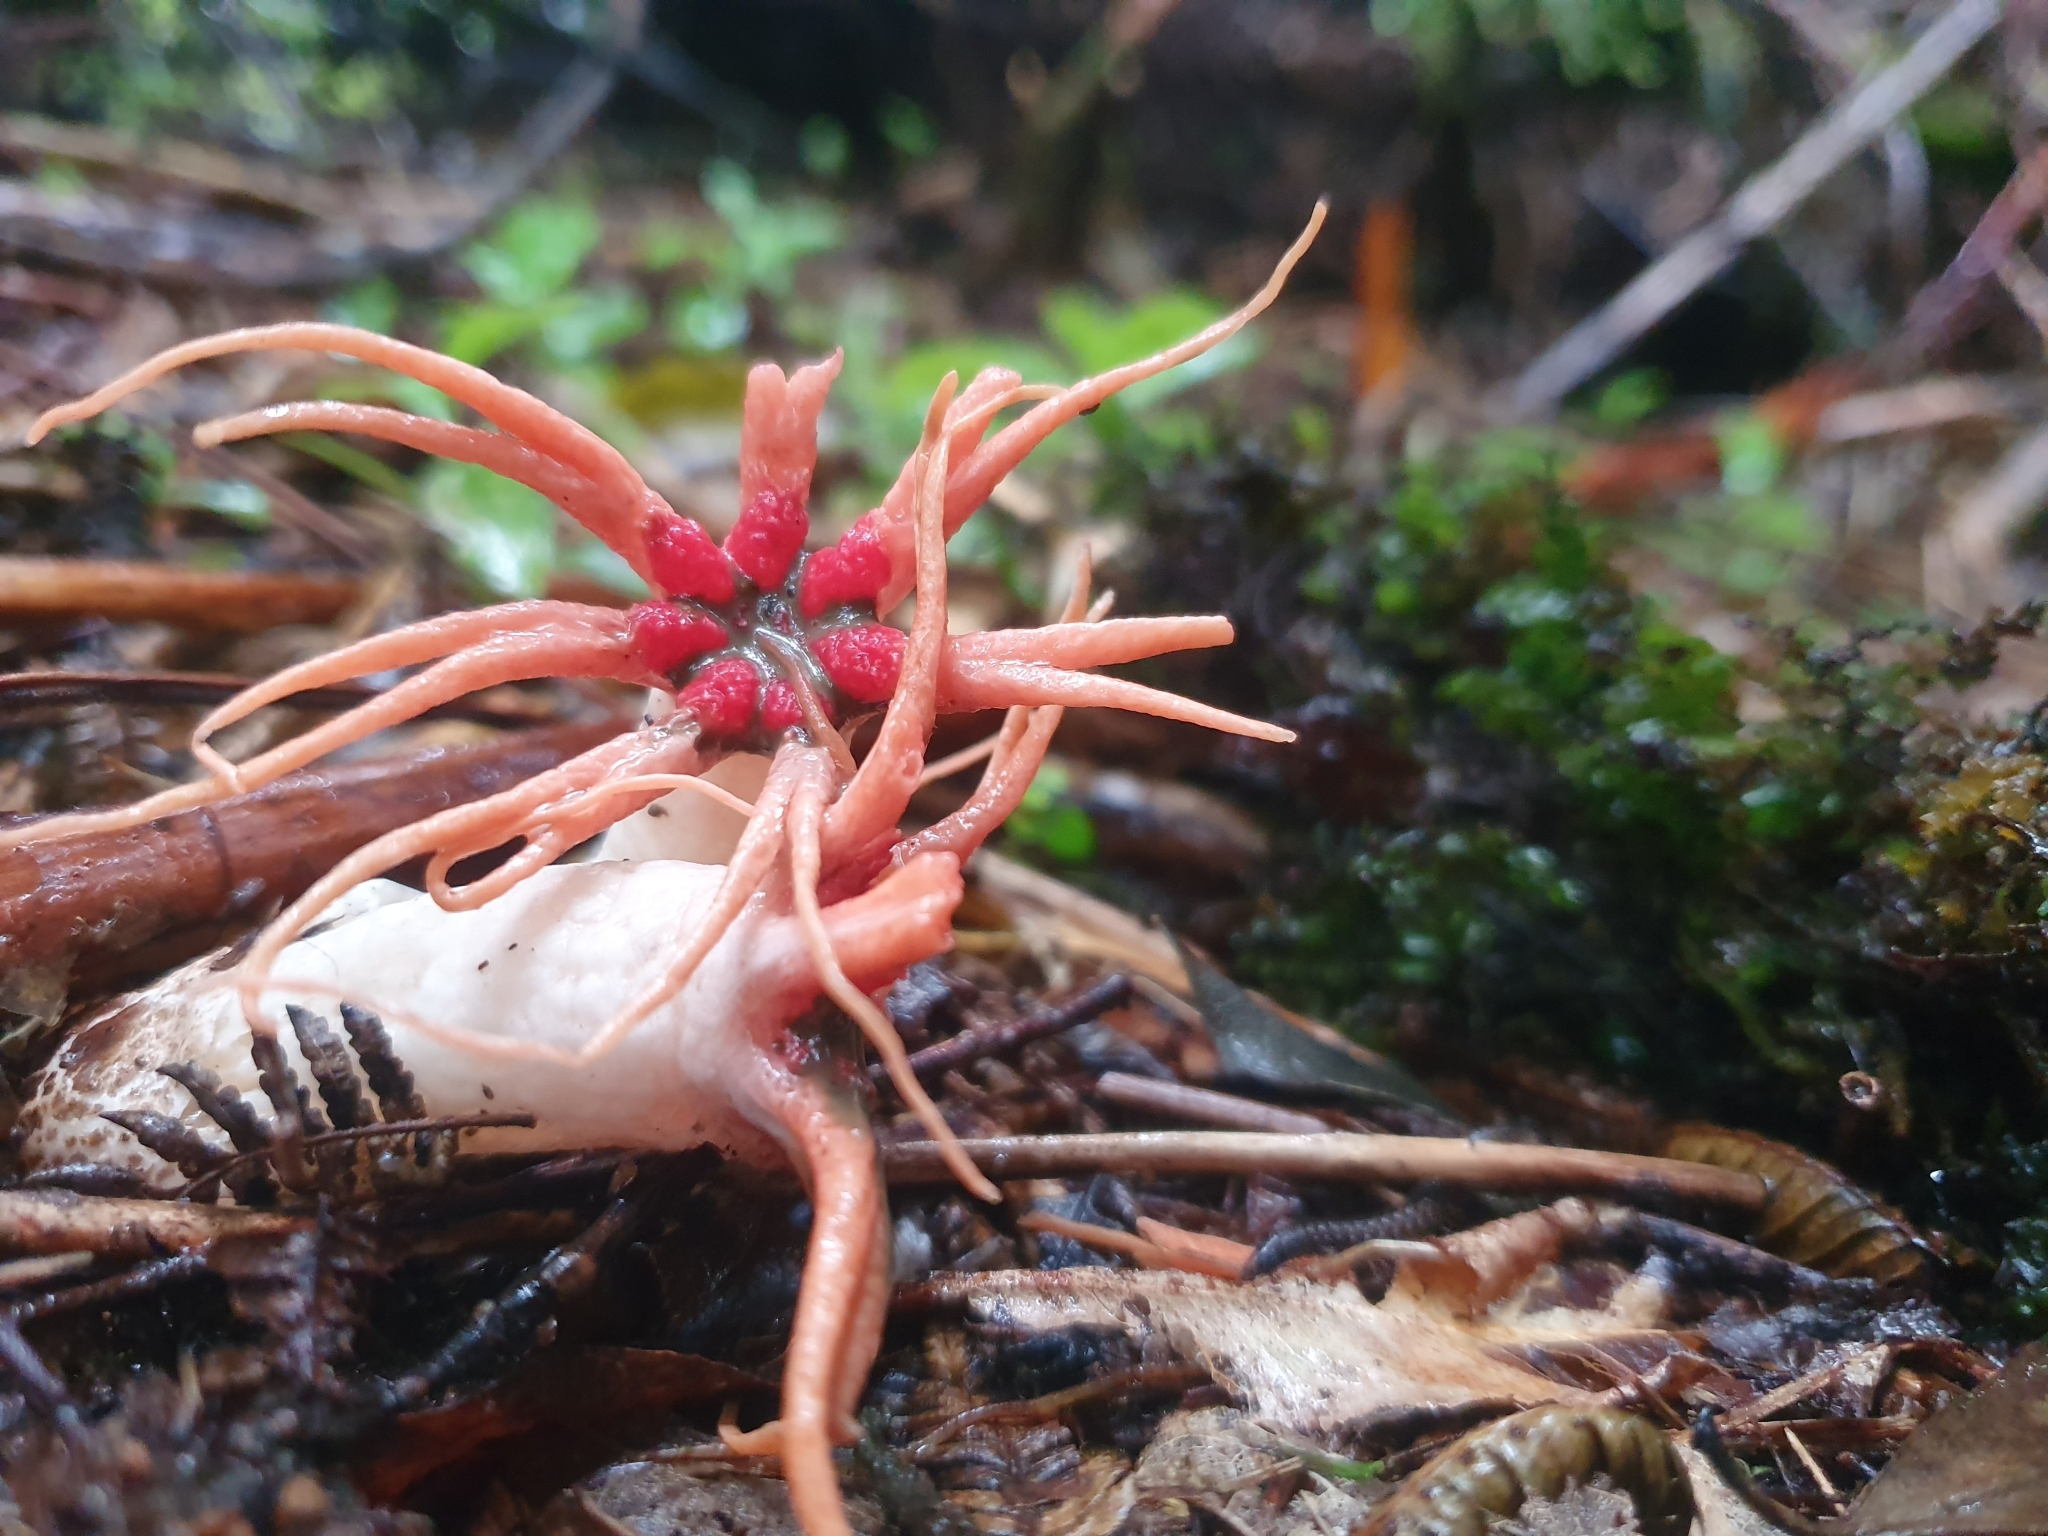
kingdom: Fungi
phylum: Basidiomycota
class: Agaricomycetes
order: Phallales
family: Phallaceae
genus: Aseroe
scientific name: Aseroe rubra
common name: Starfish fungus
